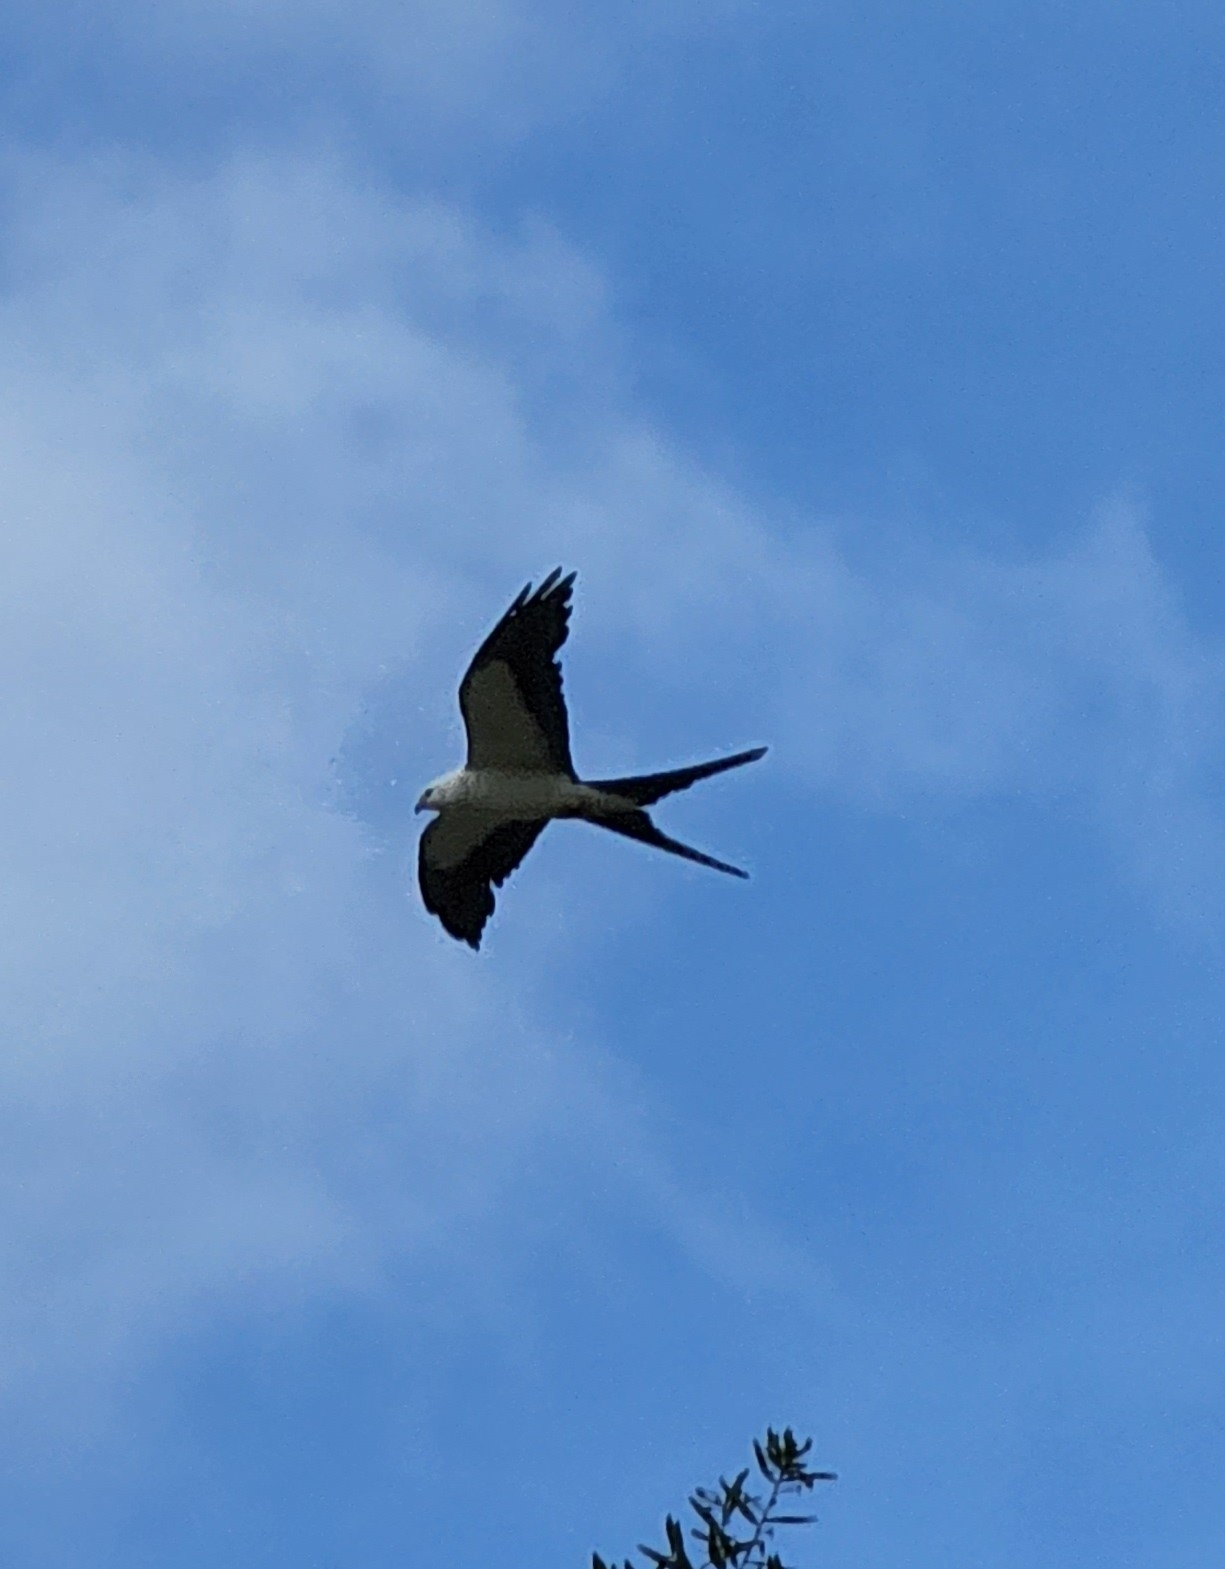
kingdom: Animalia
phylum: Chordata
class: Aves
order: Accipitriformes
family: Accipitridae
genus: Elanoides
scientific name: Elanoides forficatus
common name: Swallow-tailed kite
